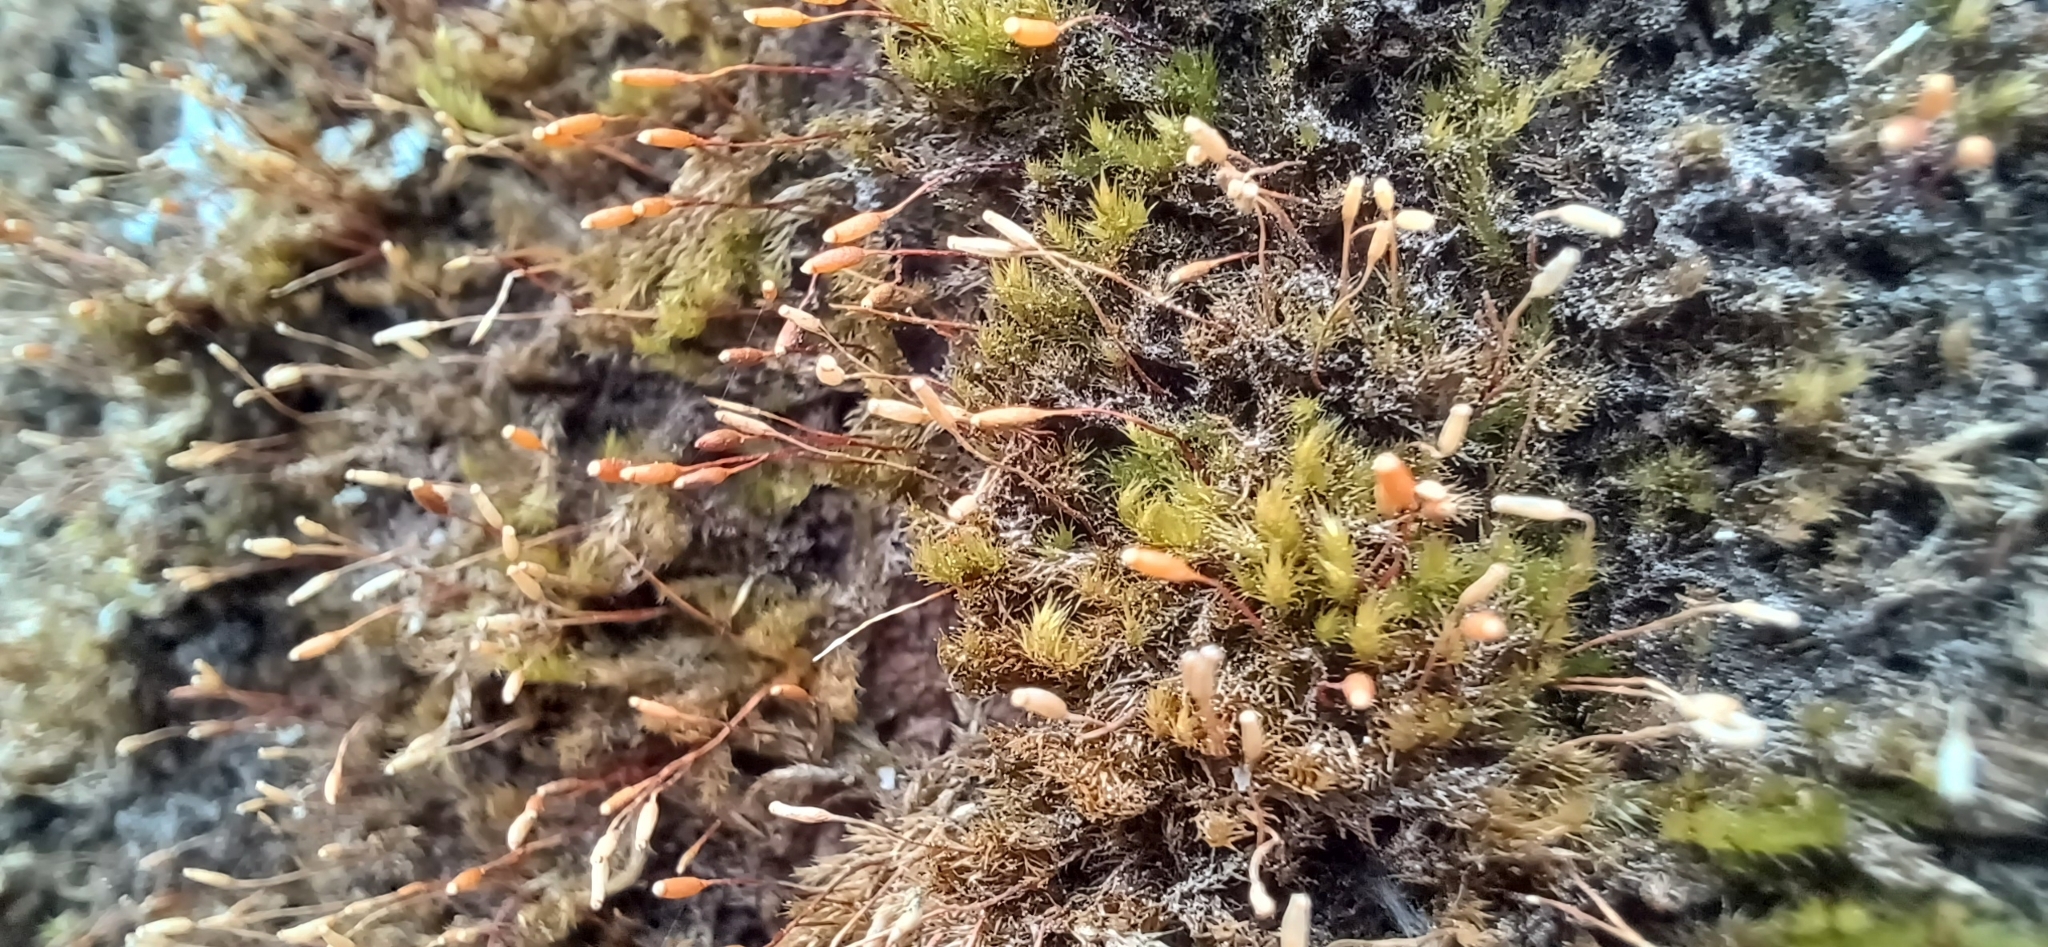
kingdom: Plantae
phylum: Bryophyta
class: Bryopsida
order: Hypnales
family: Pylaisiaceae
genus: Pylaisia
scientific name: Pylaisia polyantha
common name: Many-flowered leskea
